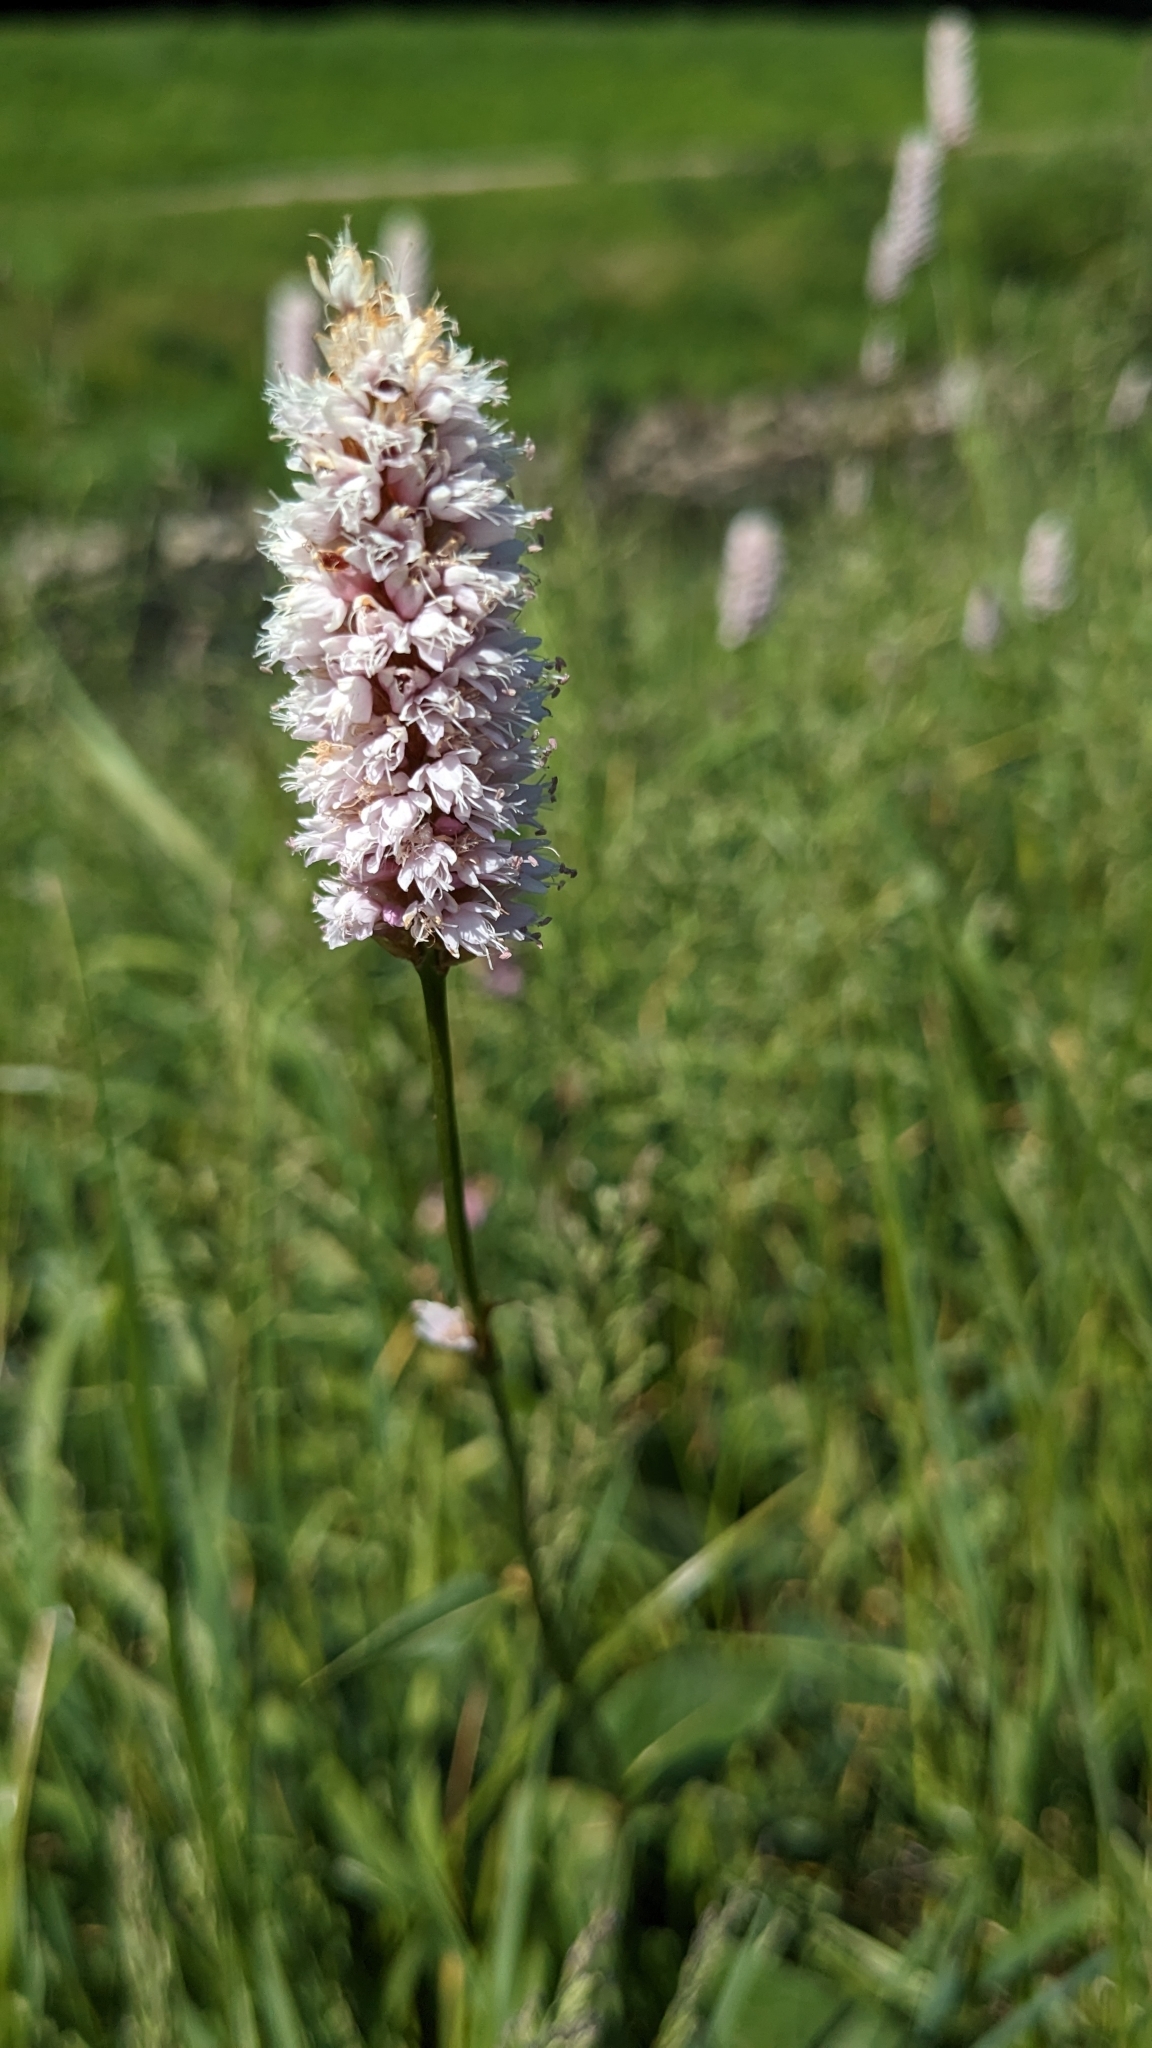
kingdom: Plantae
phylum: Tracheophyta
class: Magnoliopsida
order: Caryophyllales
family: Polygonaceae
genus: Bistorta
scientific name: Bistorta officinalis
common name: Common bistort
